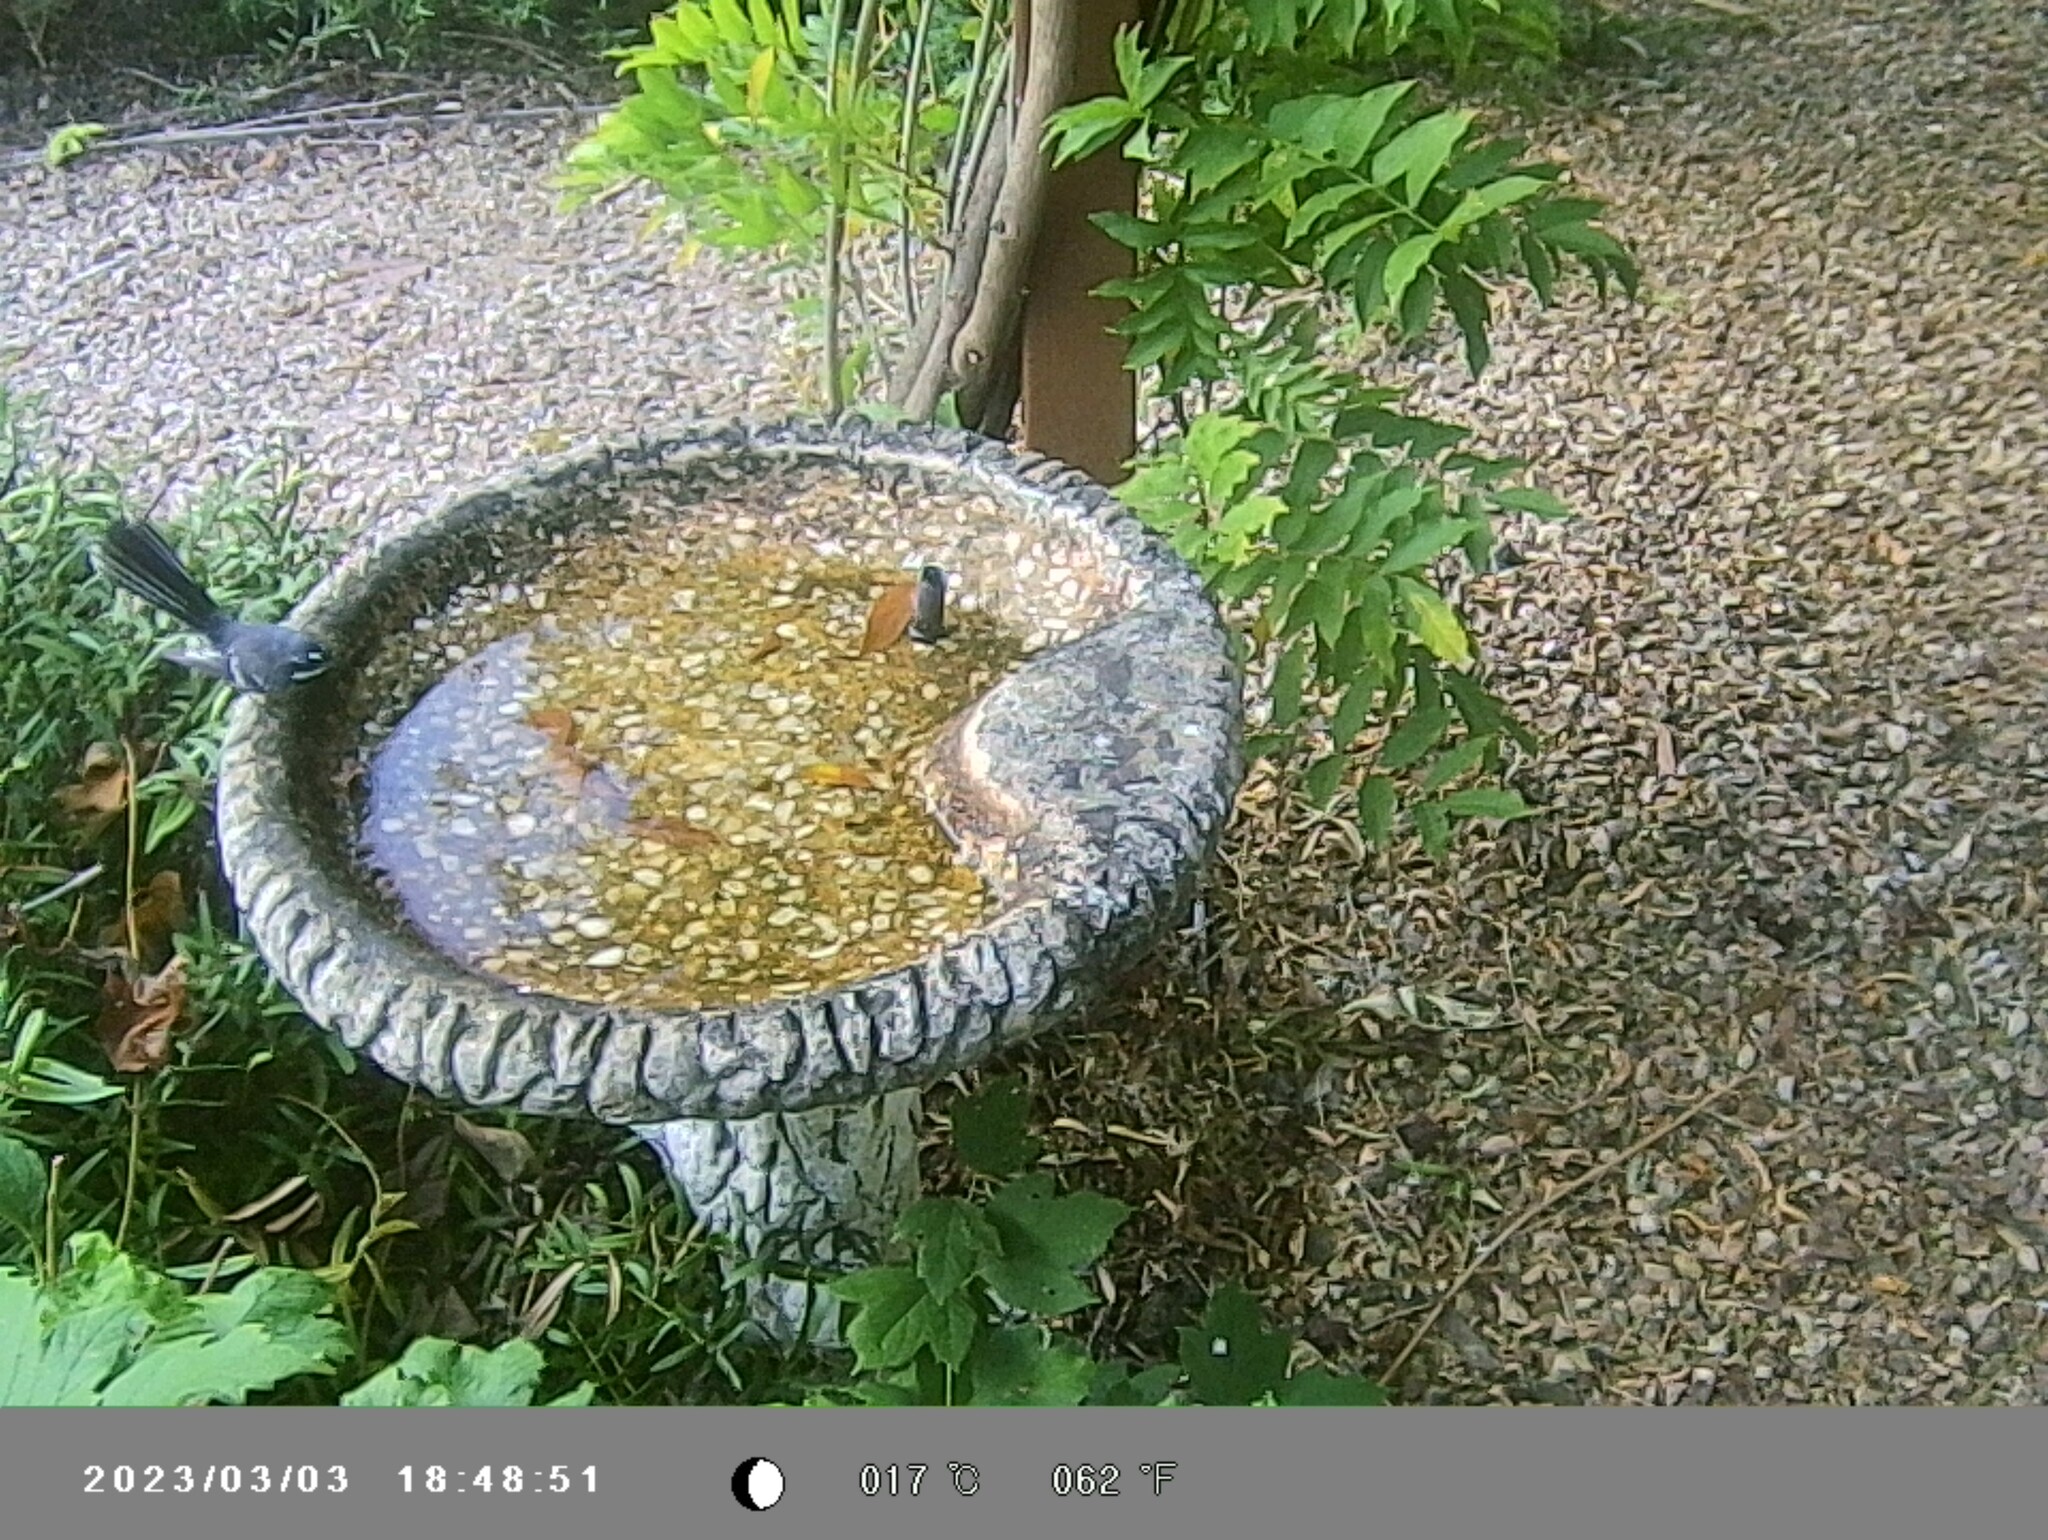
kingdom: Animalia
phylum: Chordata
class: Aves
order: Passeriformes
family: Rhipiduridae
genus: Rhipidura
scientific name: Rhipidura albiscapa
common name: Grey fantail
